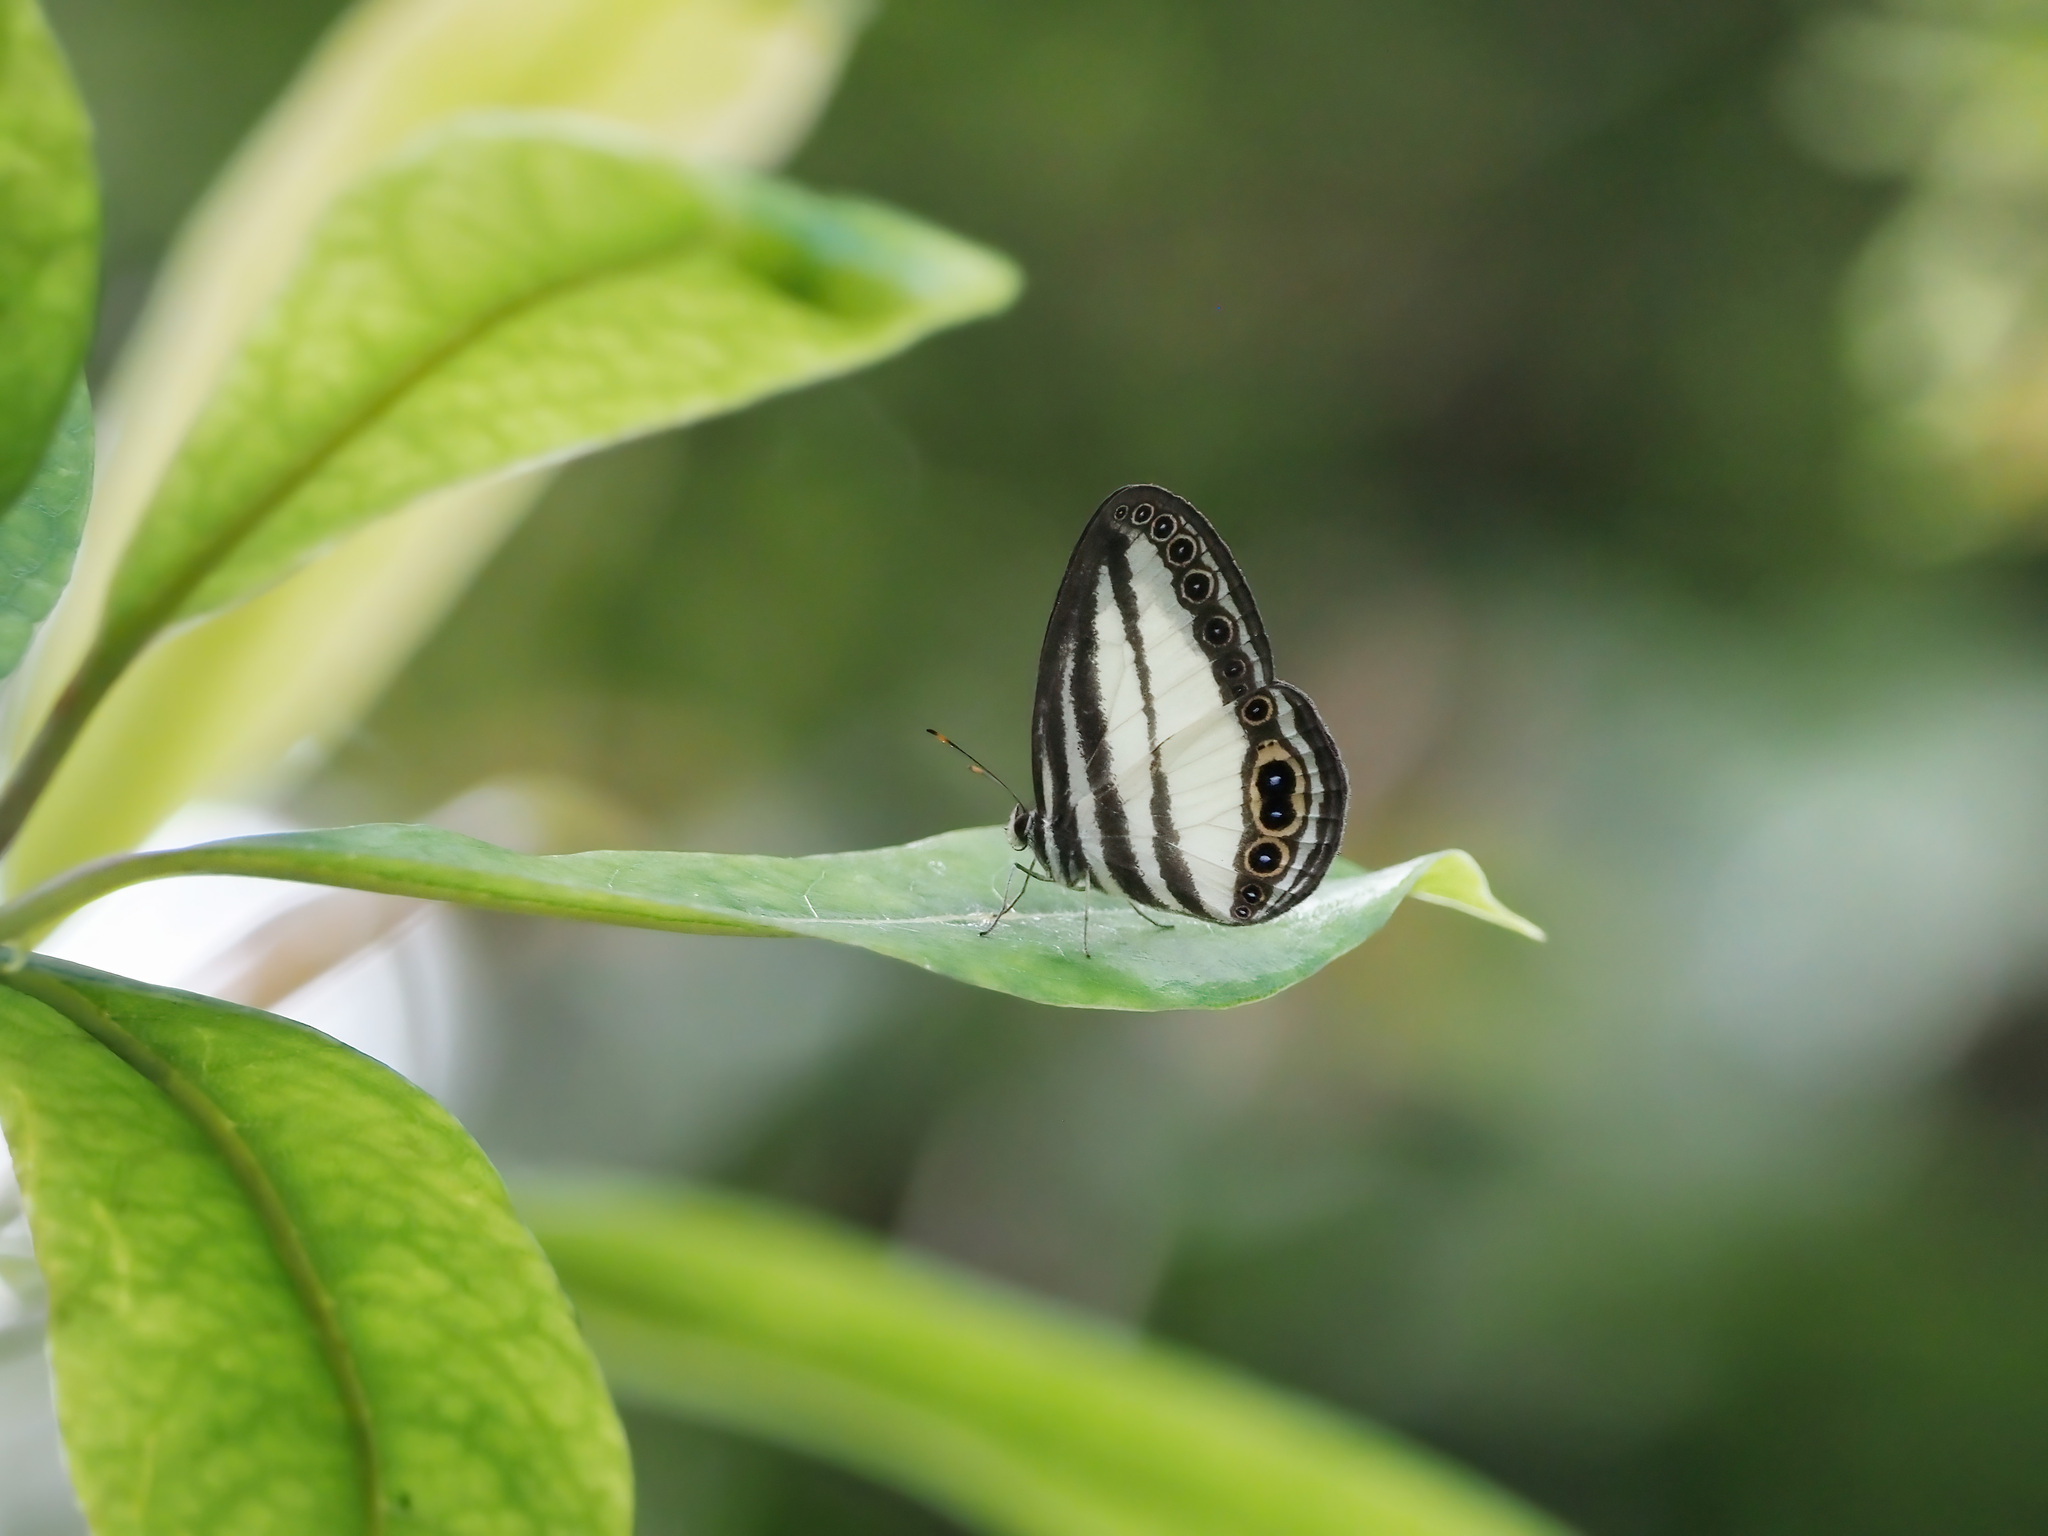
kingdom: Animalia
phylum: Arthropoda
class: Insecta
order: Lepidoptera
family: Nymphalidae
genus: Ragadia
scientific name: Ragadia annulata
